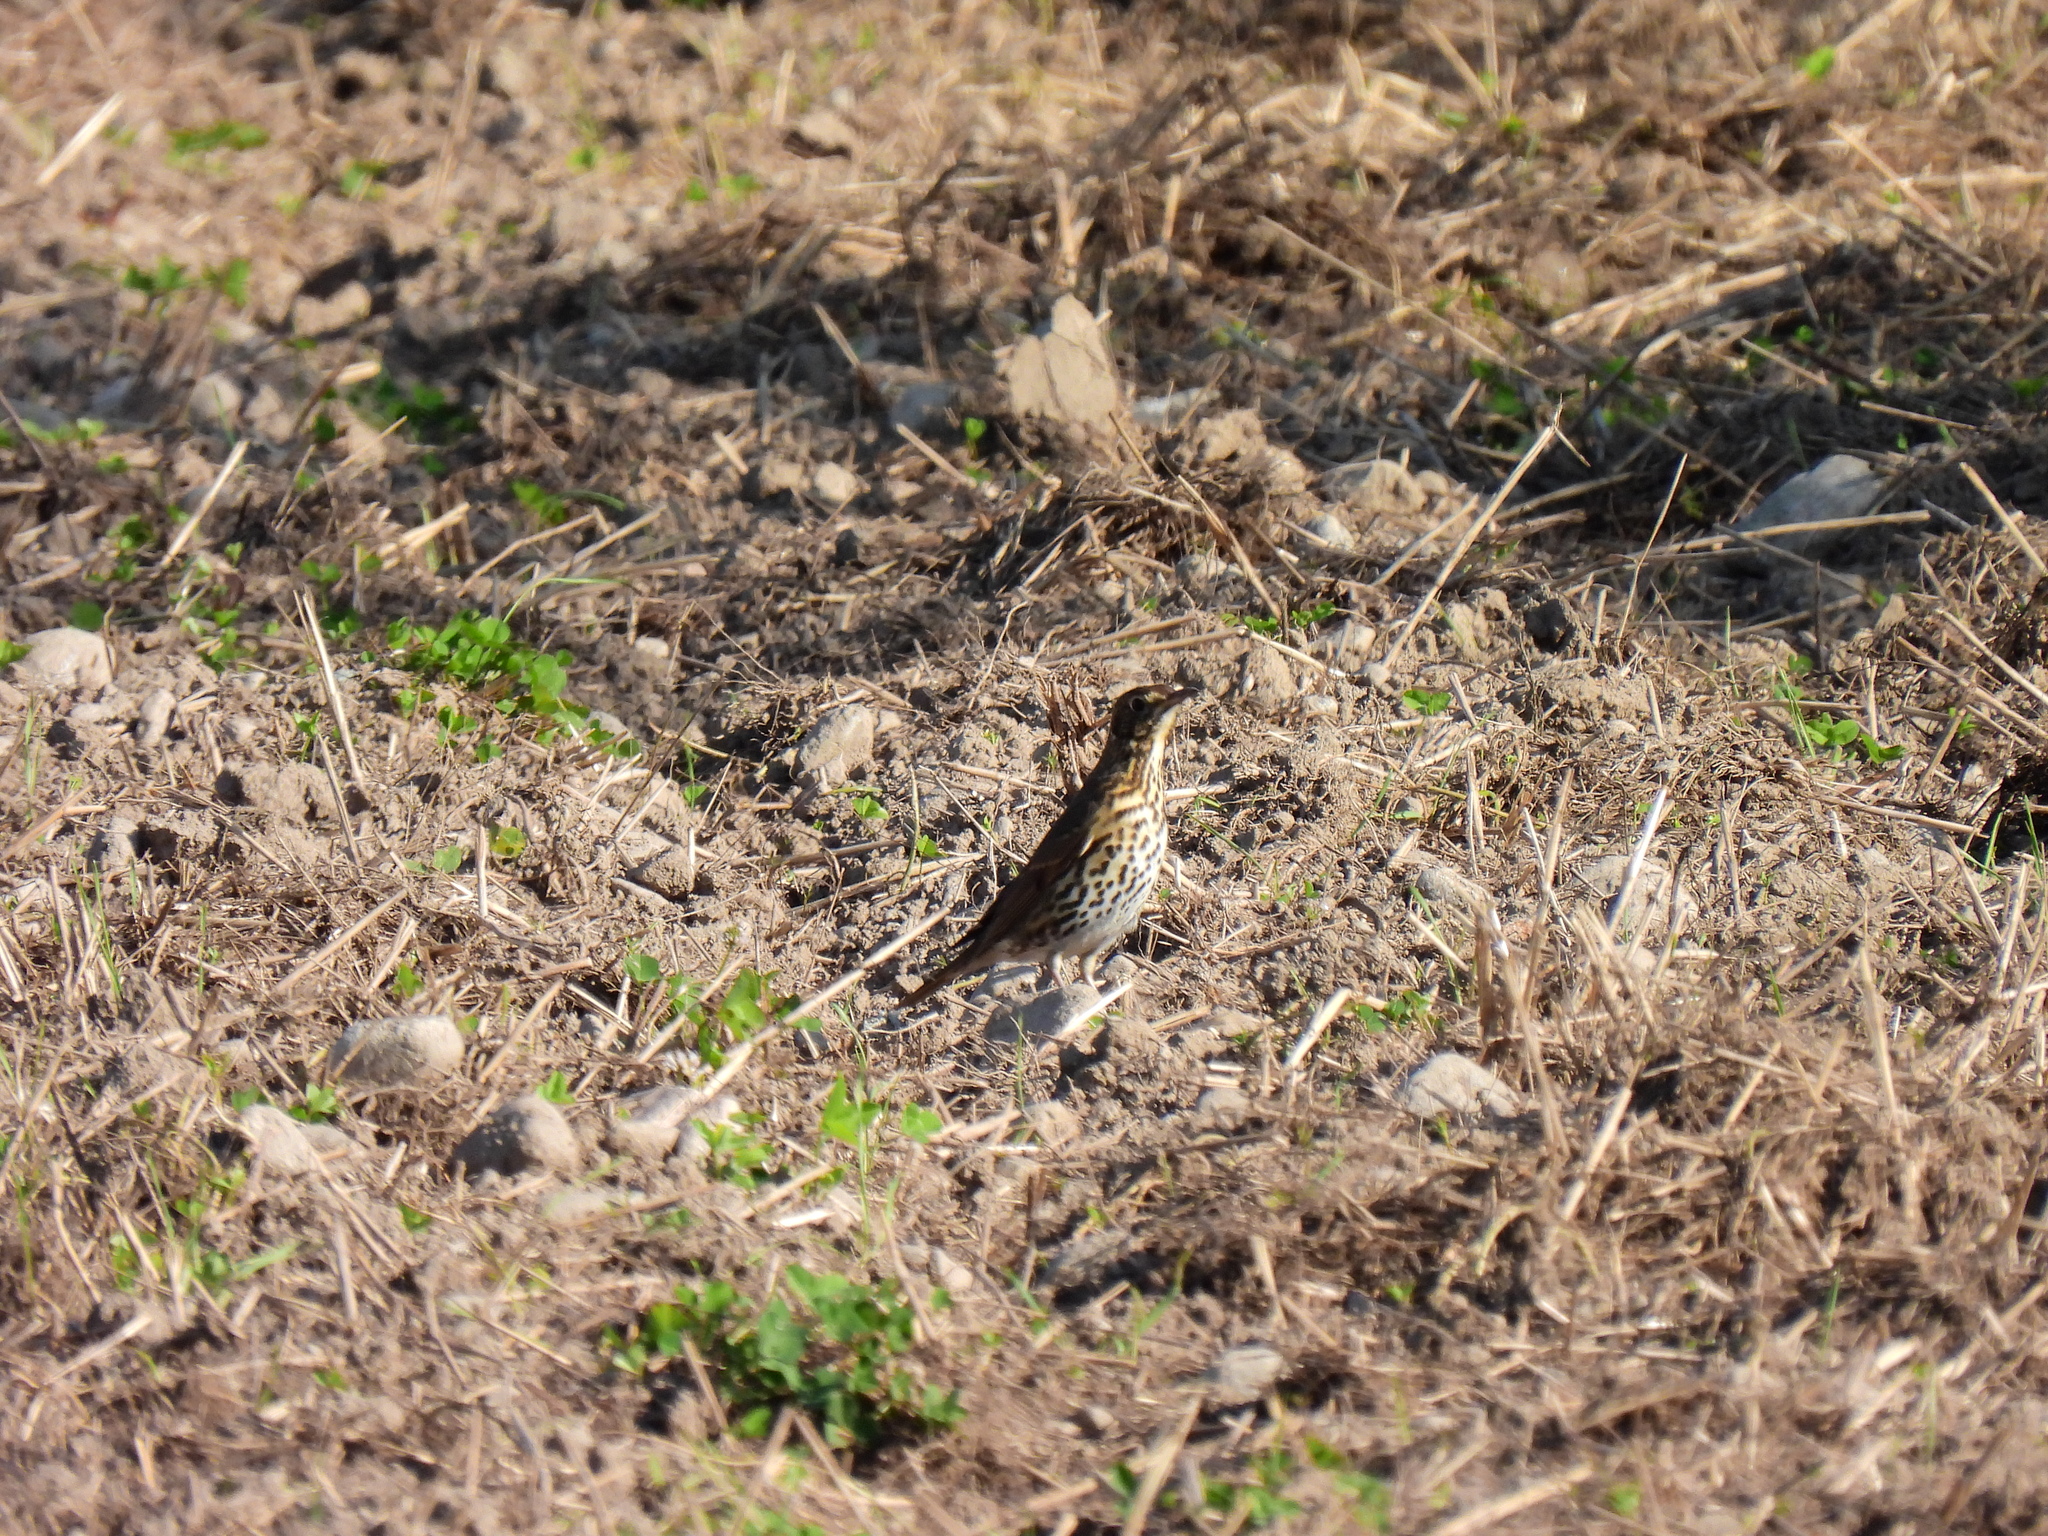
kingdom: Animalia
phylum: Chordata
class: Aves
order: Passeriformes
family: Turdidae
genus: Turdus
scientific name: Turdus philomelos
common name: Song thrush
